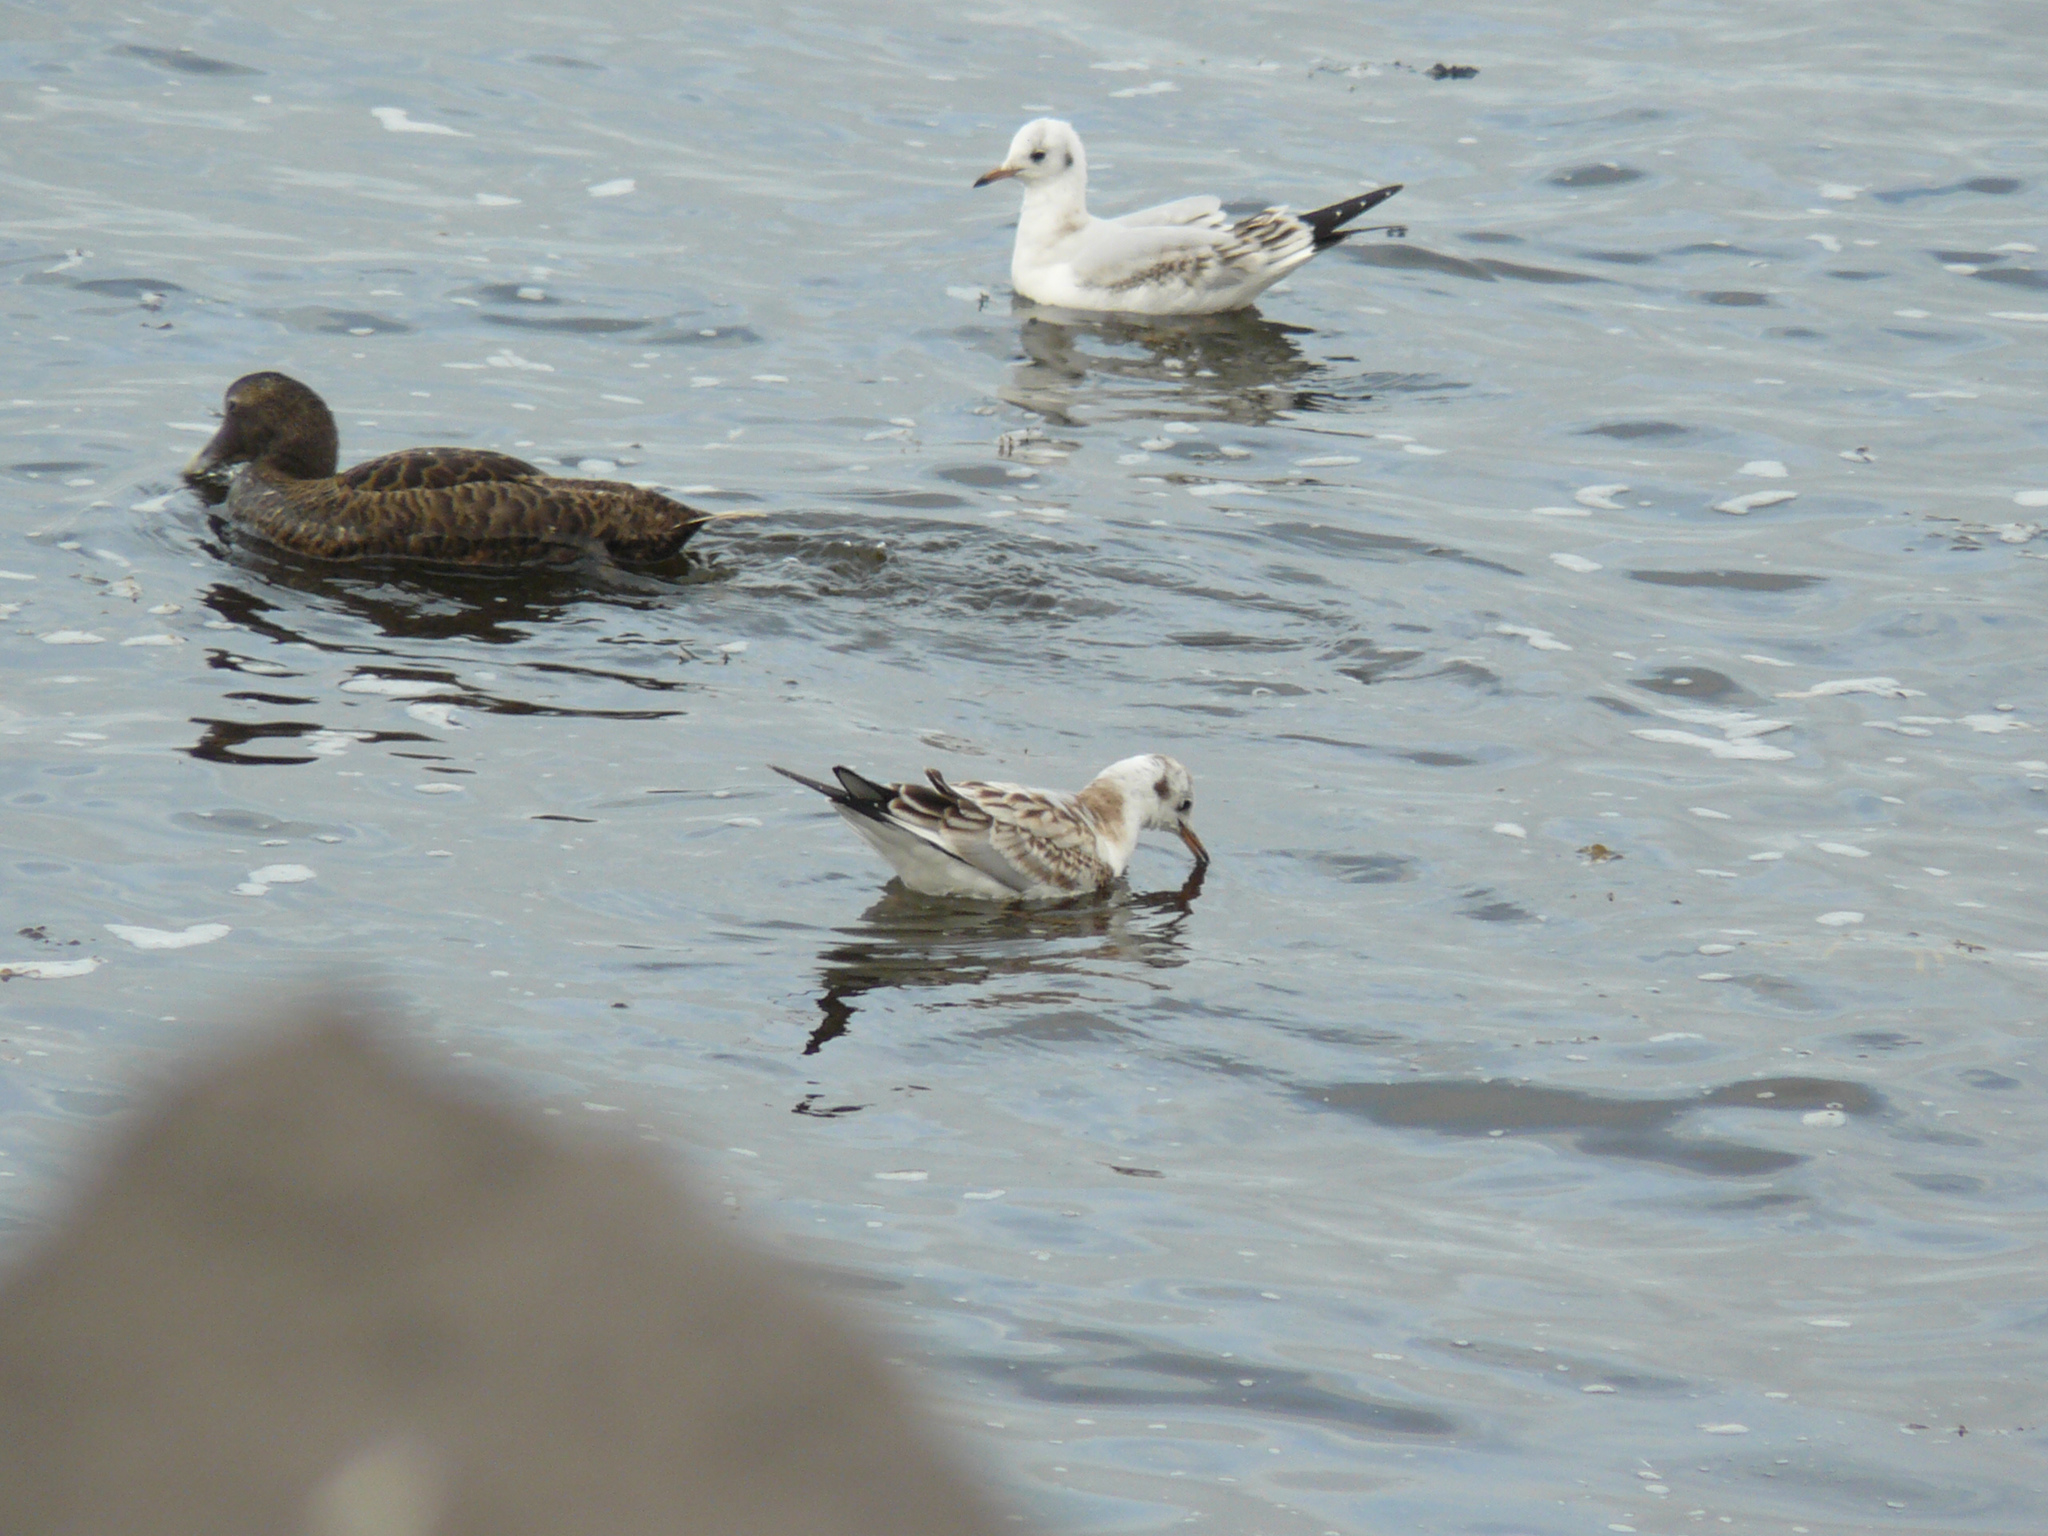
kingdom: Animalia
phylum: Chordata
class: Aves
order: Charadriiformes
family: Laridae
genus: Chroicocephalus
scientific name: Chroicocephalus ridibundus
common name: Black-headed gull
